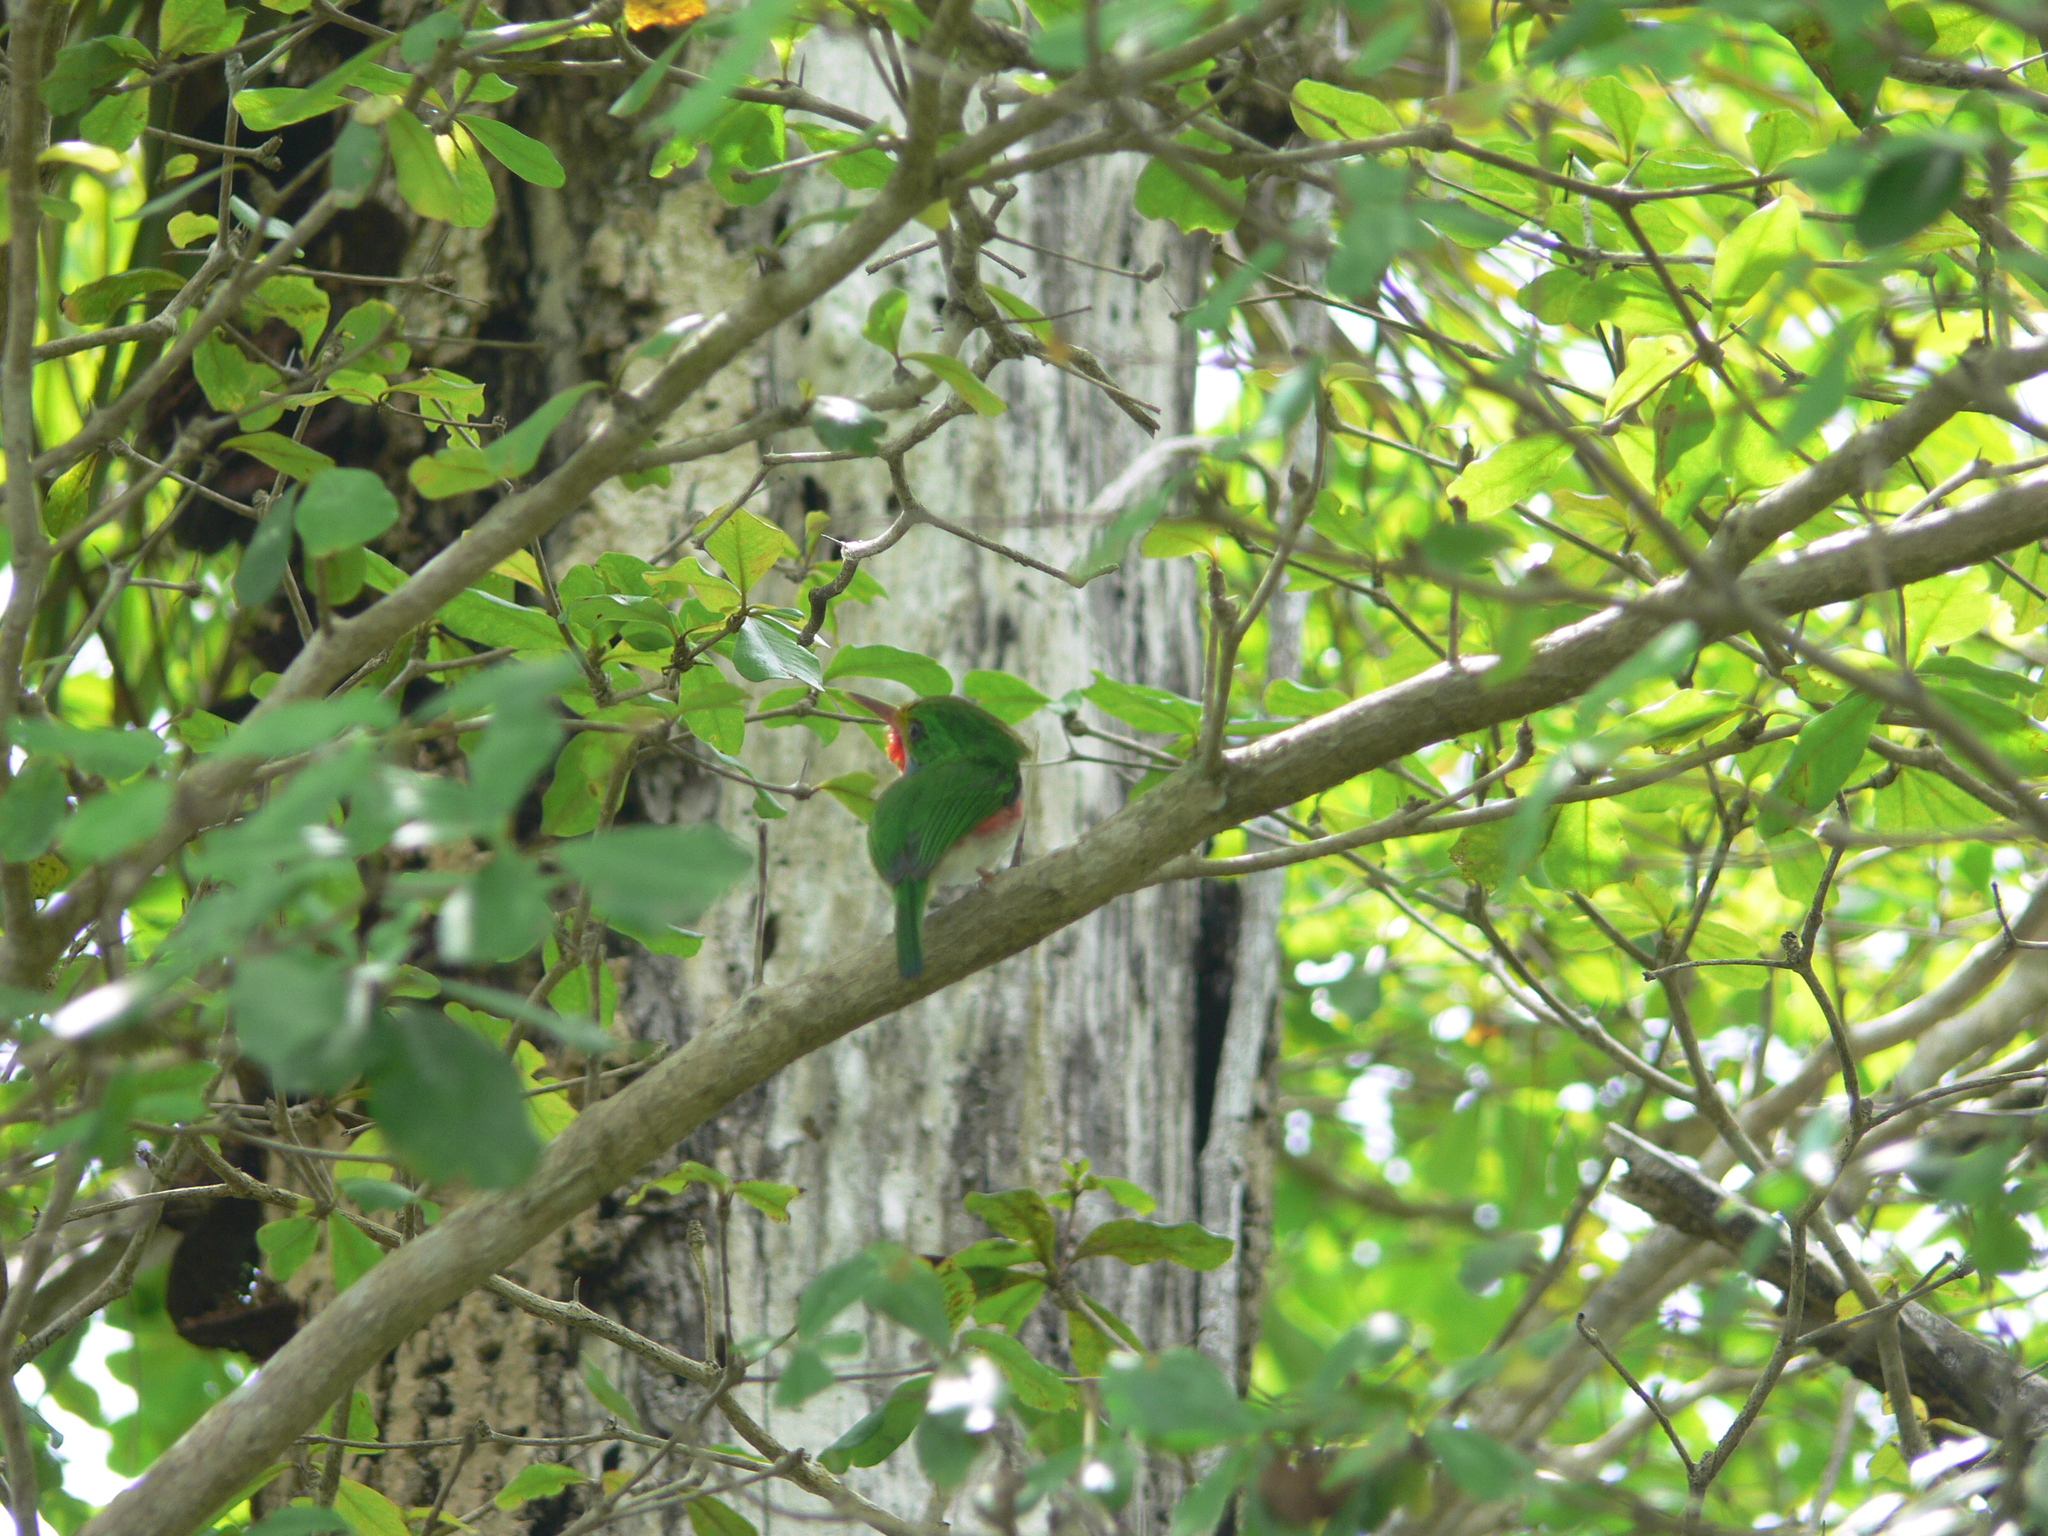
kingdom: Animalia
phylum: Chordata
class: Aves
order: Coraciiformes
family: Todidae
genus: Todus
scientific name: Todus multicolor
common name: Cuban tody
